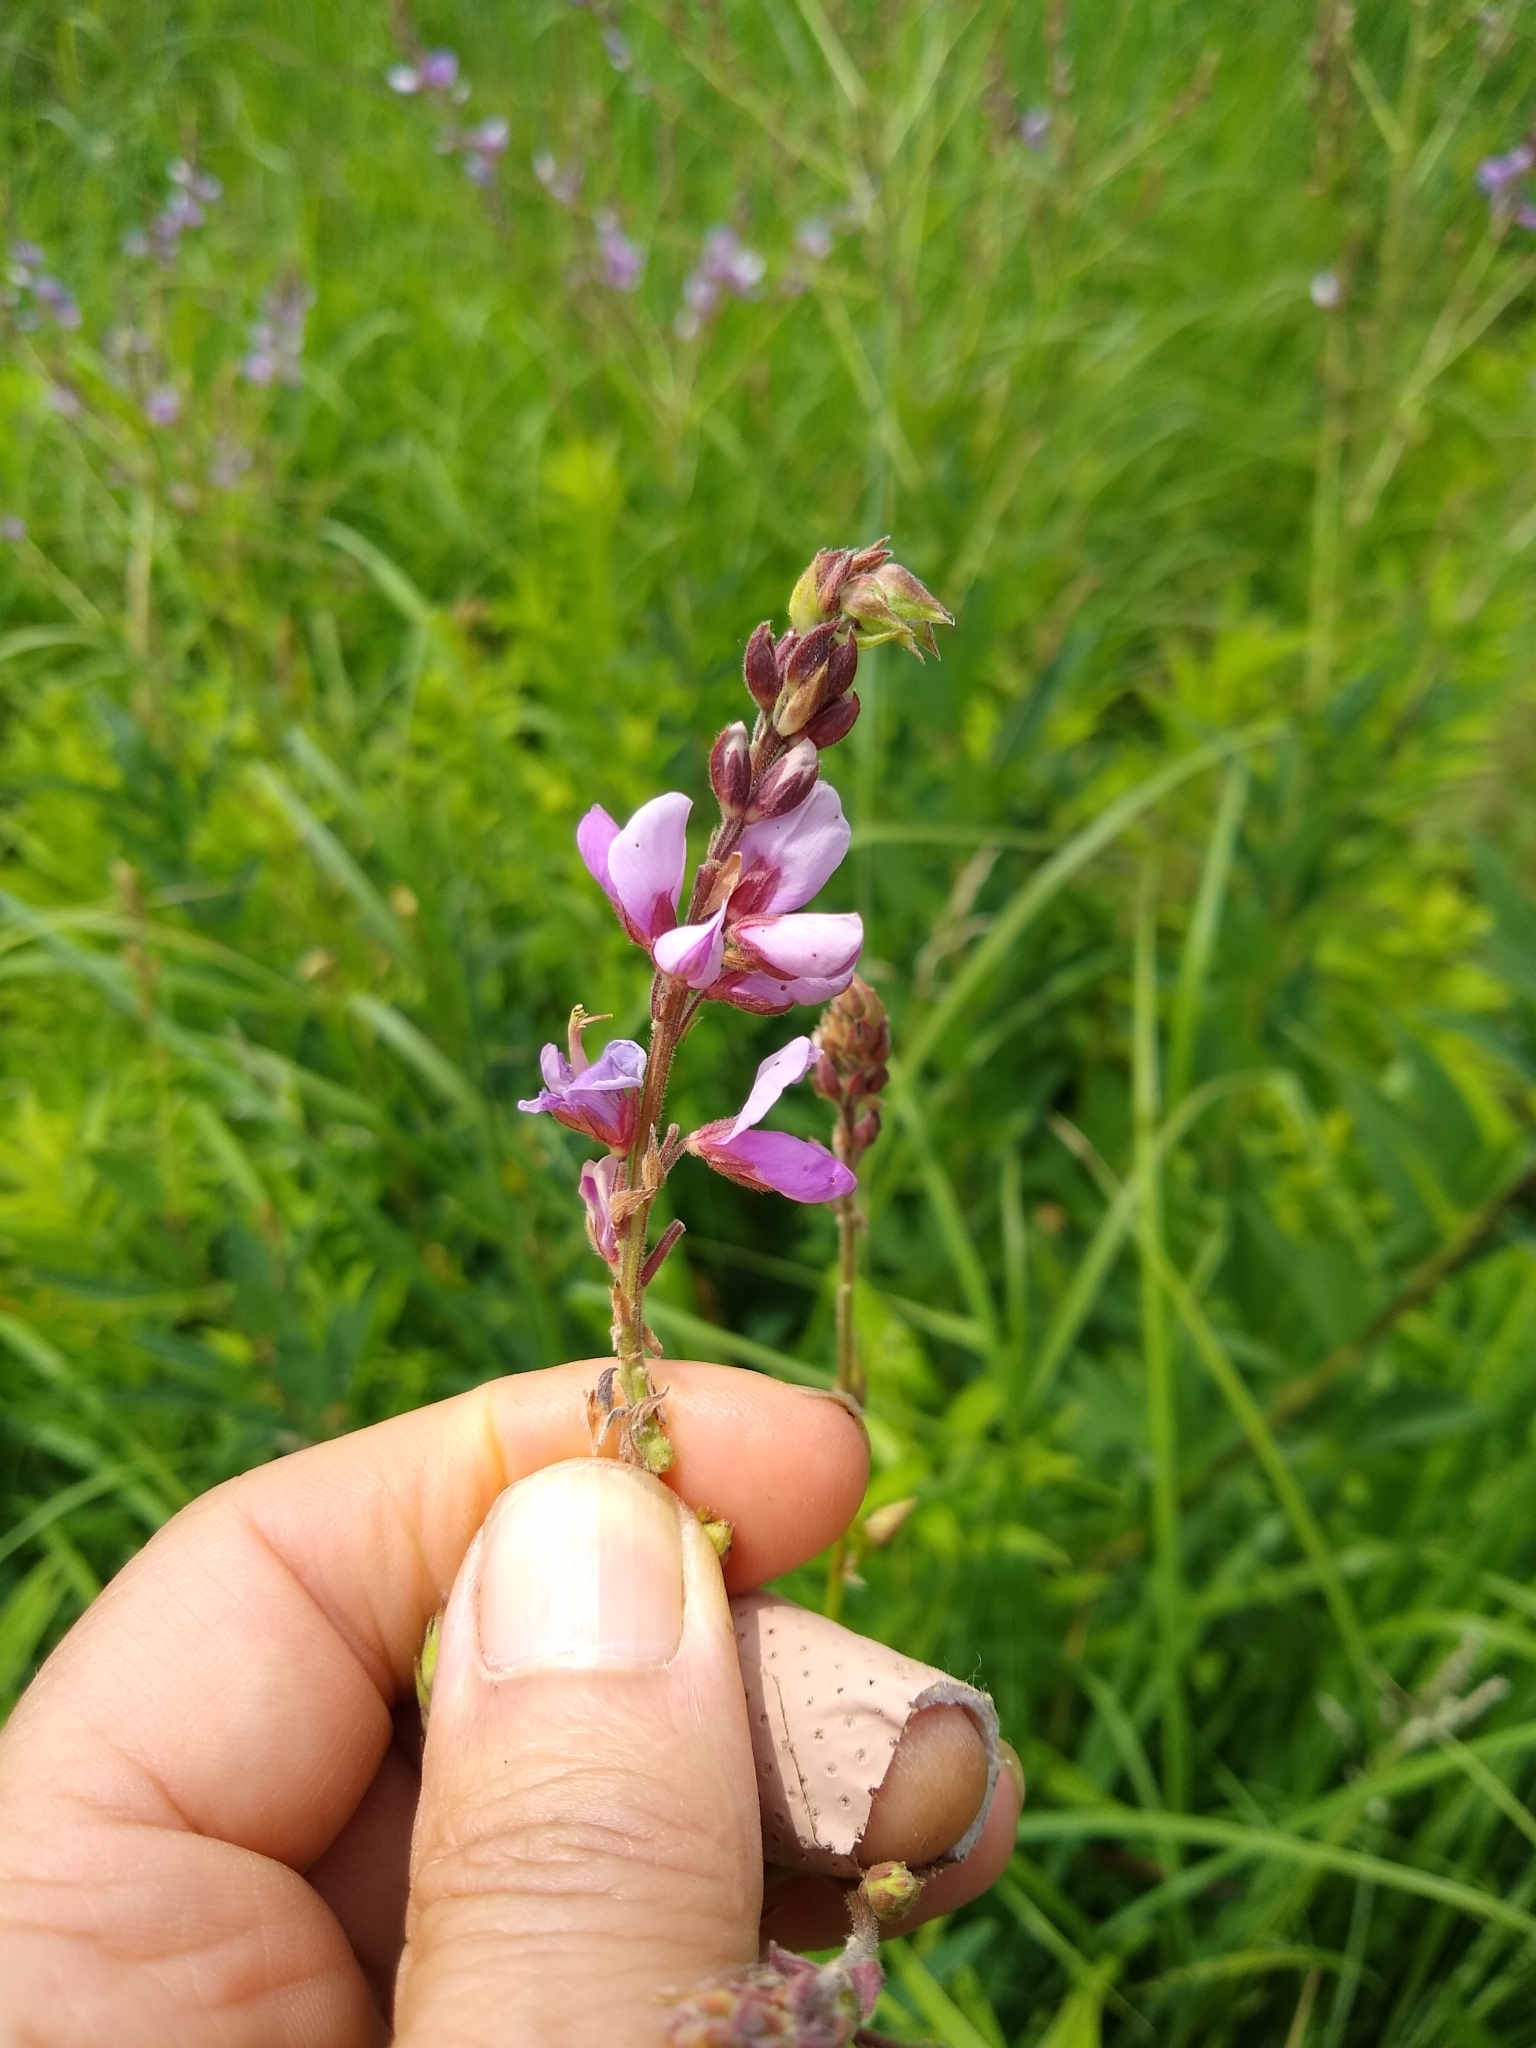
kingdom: Plantae
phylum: Tracheophyta
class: Magnoliopsida
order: Fabales
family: Fabaceae
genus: Desmodium
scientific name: Desmodium canadense
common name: Canada tick-trefoil
